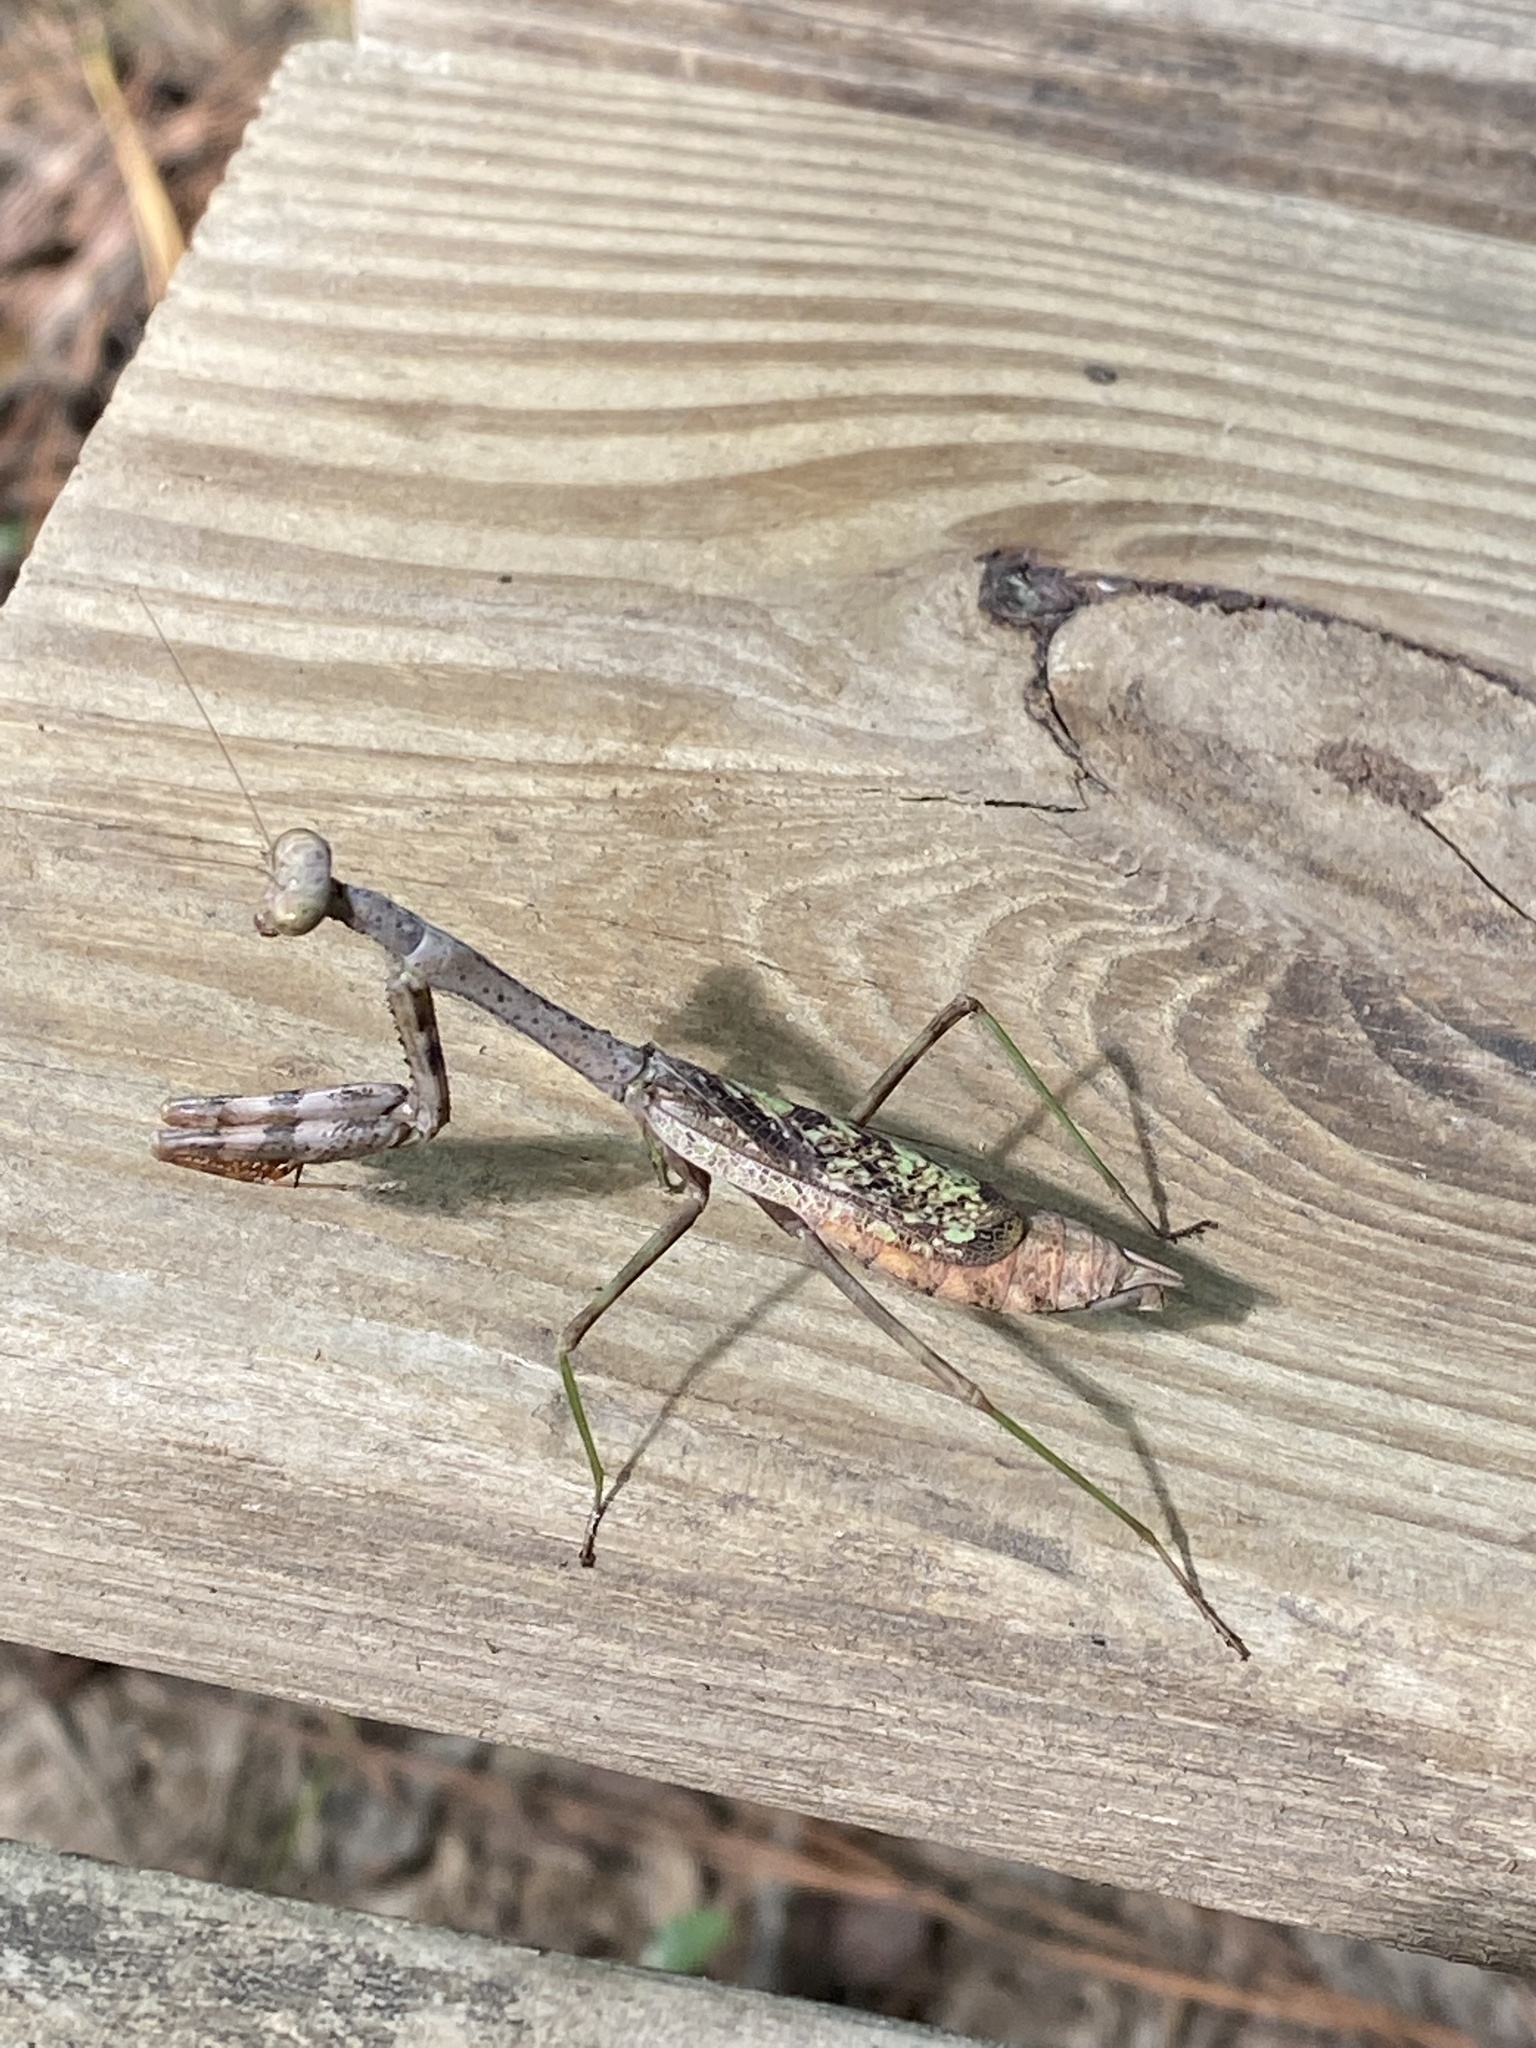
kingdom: Animalia
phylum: Arthropoda
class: Insecta
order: Mantodea
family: Mantidae
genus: Stagmomantis
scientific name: Stagmomantis carolina
